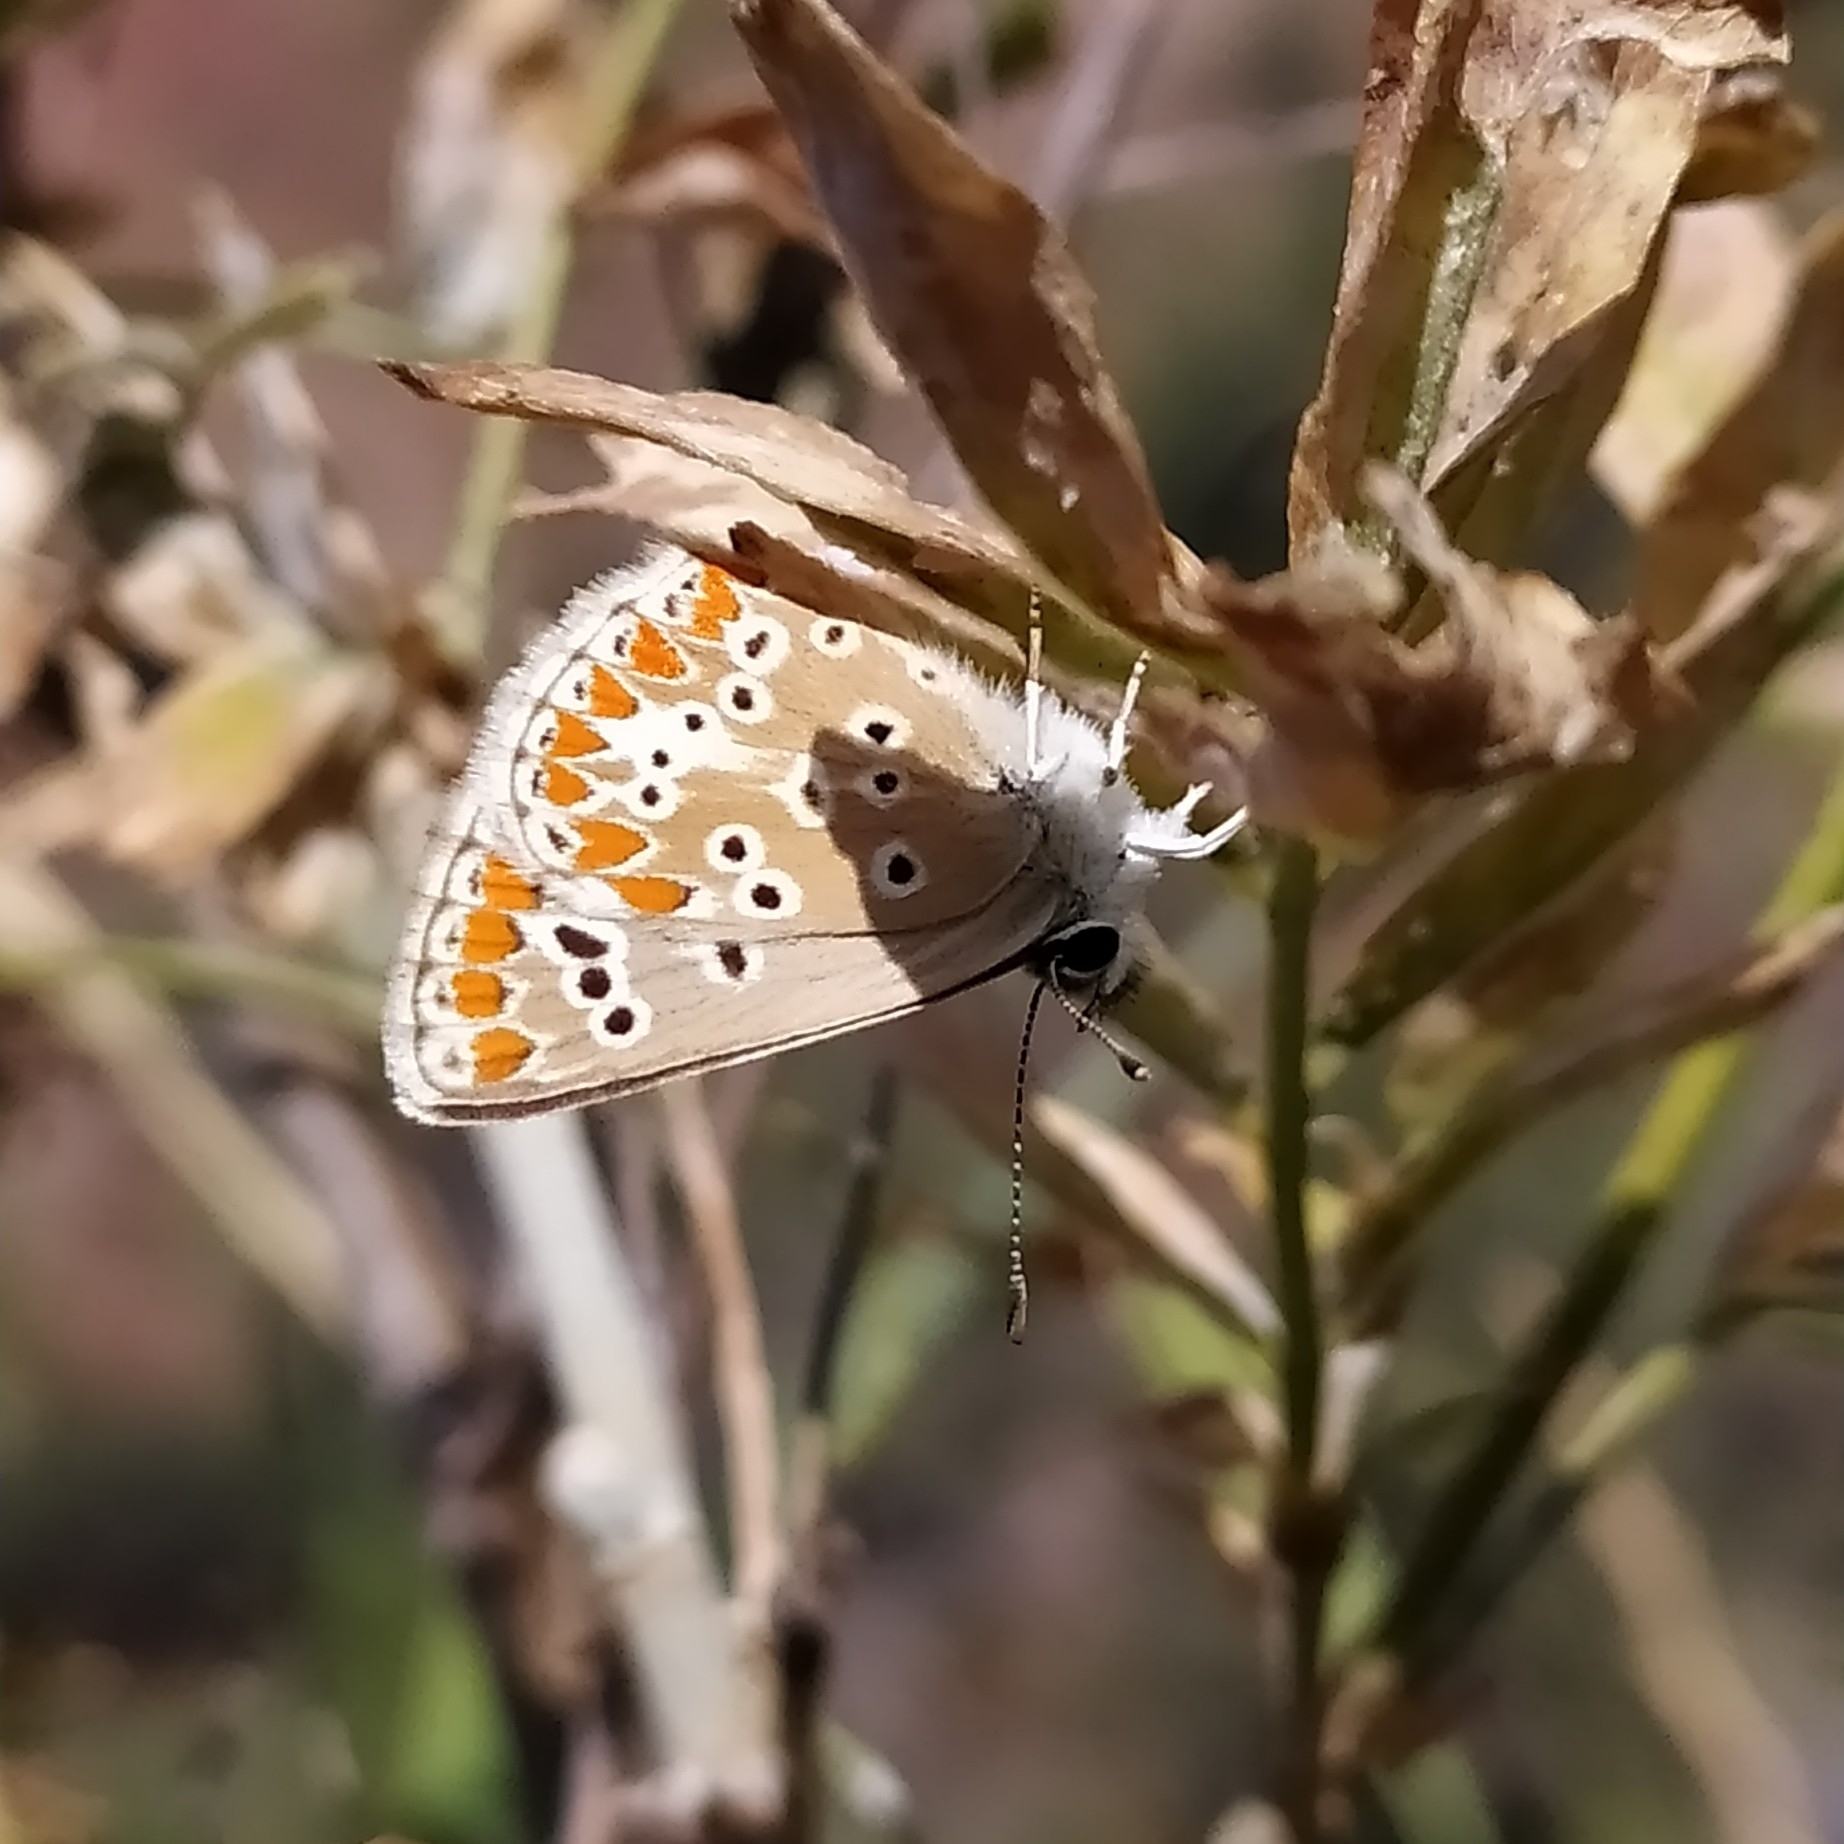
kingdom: Animalia
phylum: Arthropoda
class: Insecta
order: Lepidoptera
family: Lycaenidae
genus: Aricia
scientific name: Aricia agestis
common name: Brown argus
